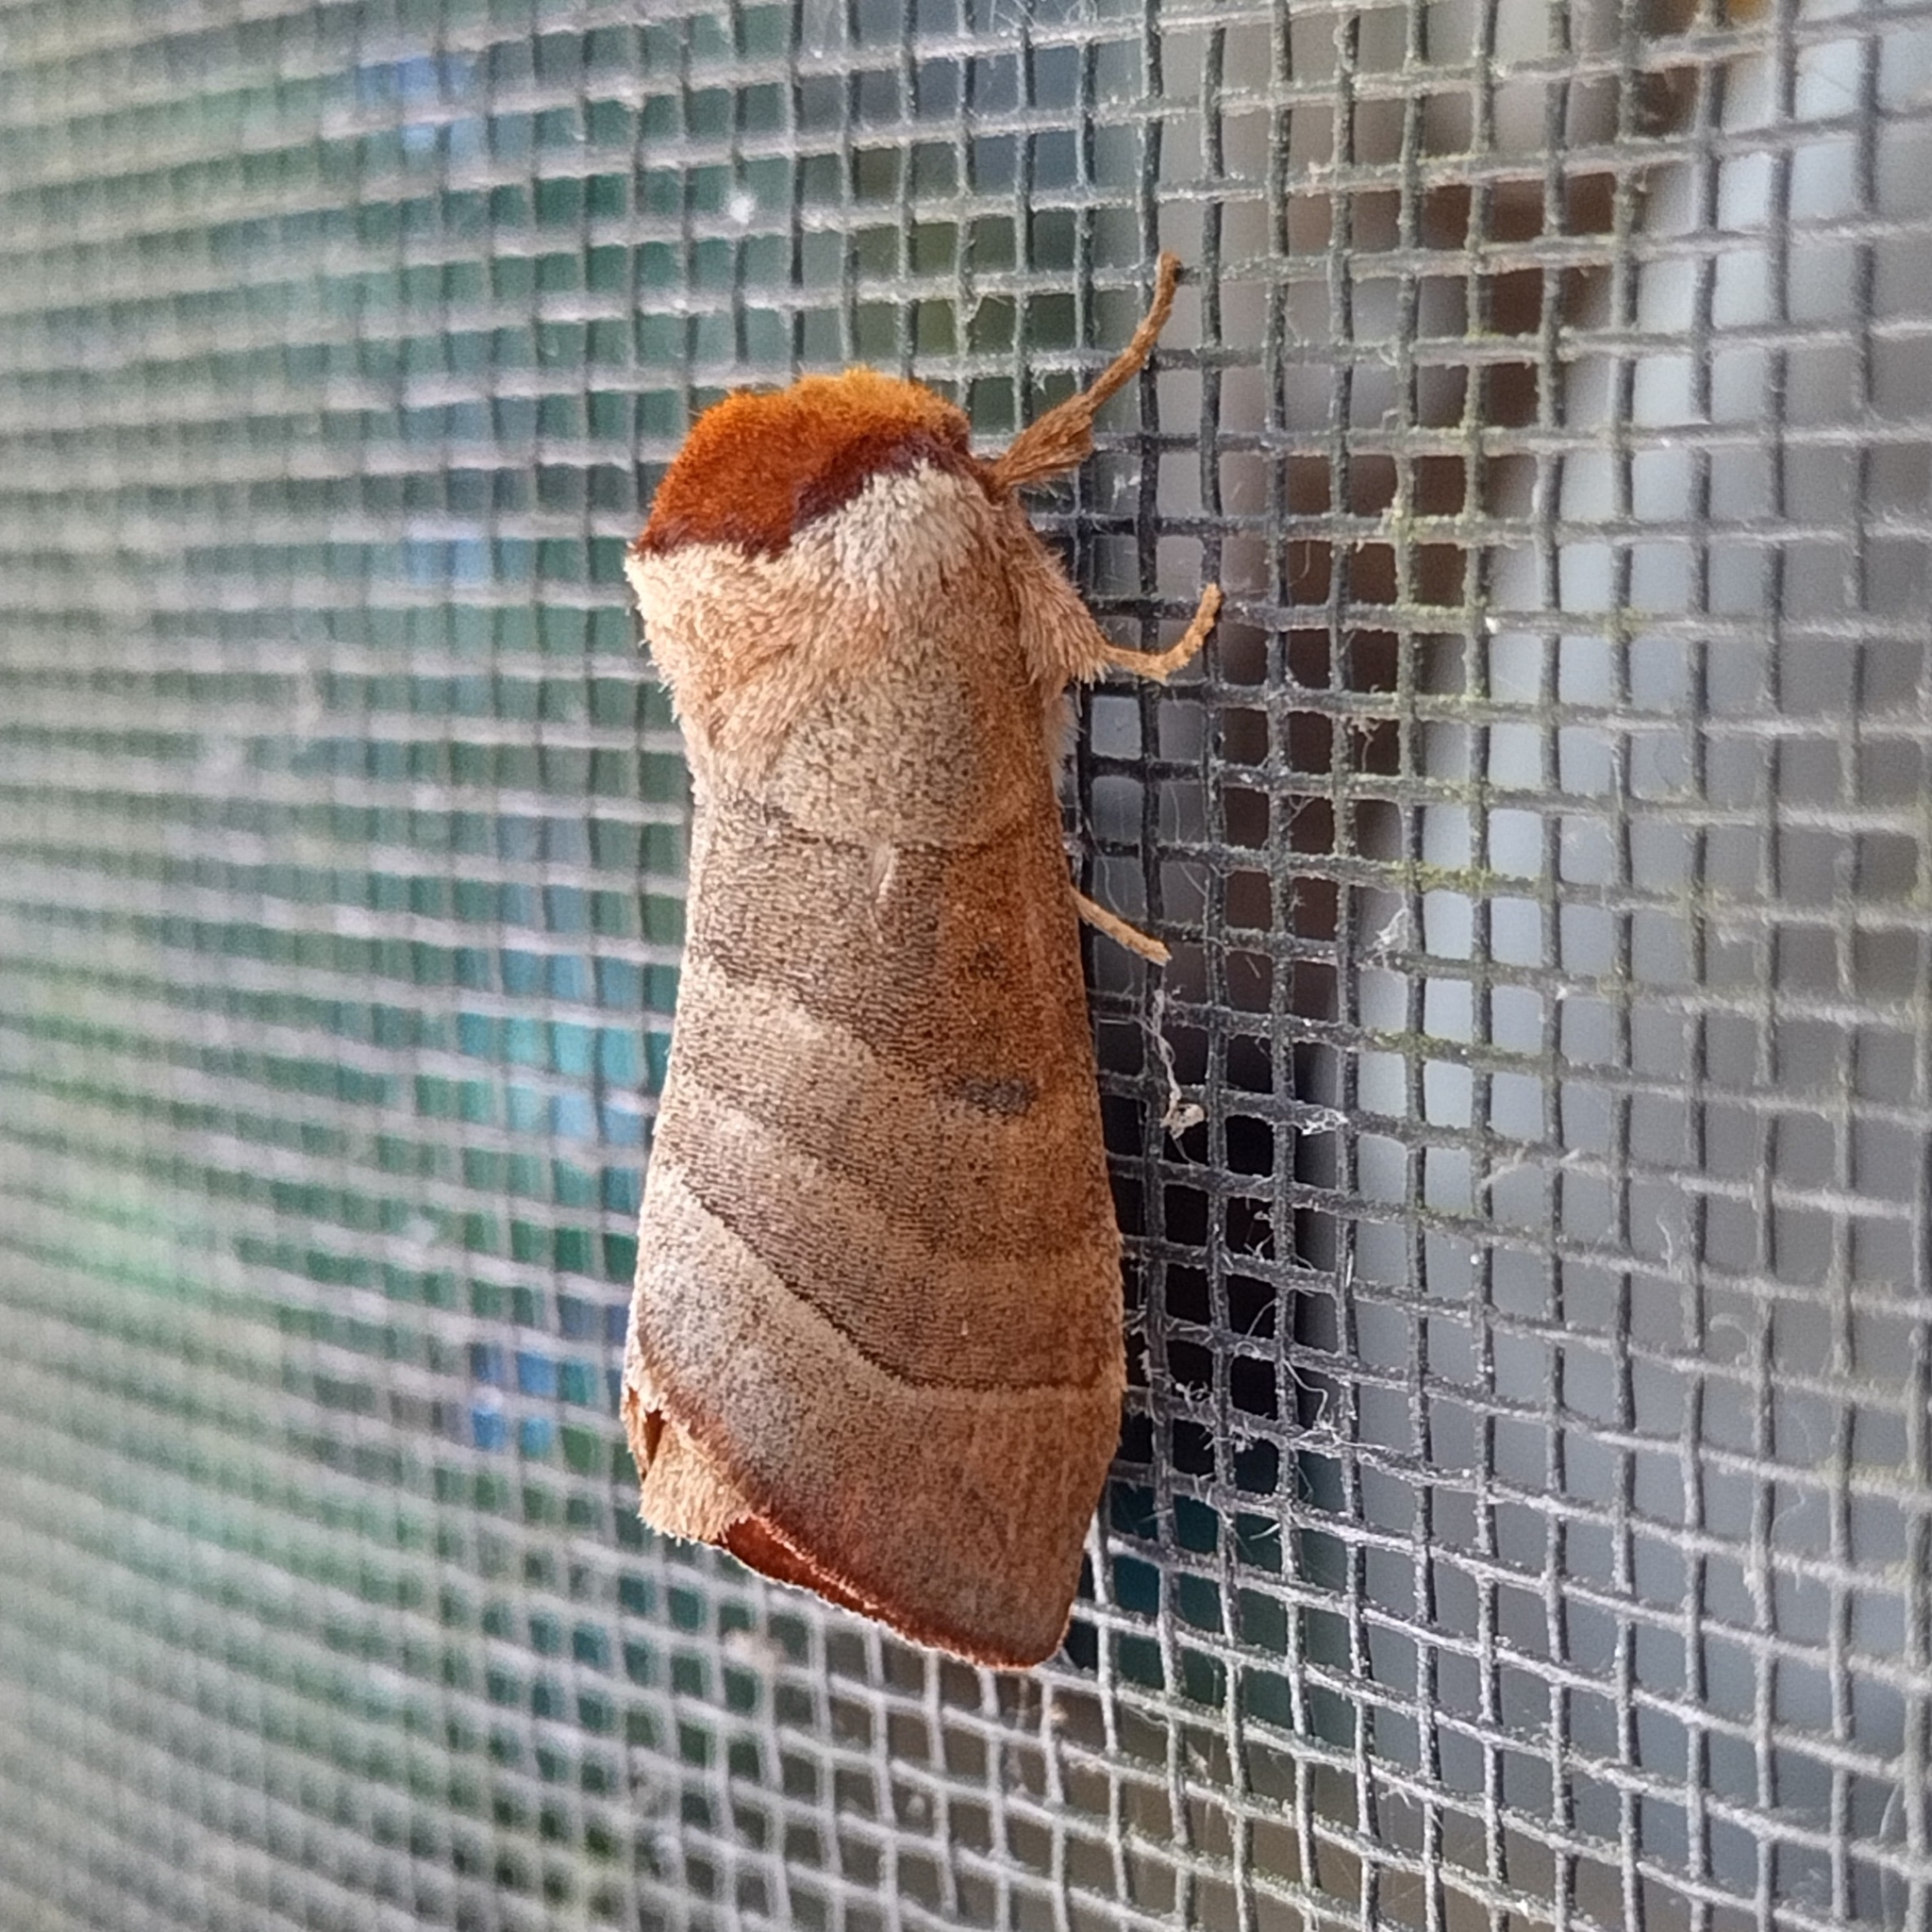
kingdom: Animalia
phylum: Arthropoda
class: Insecta
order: Lepidoptera
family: Notodontidae
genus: Datana
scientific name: Datana integerrima
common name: Walnut caterpillar
